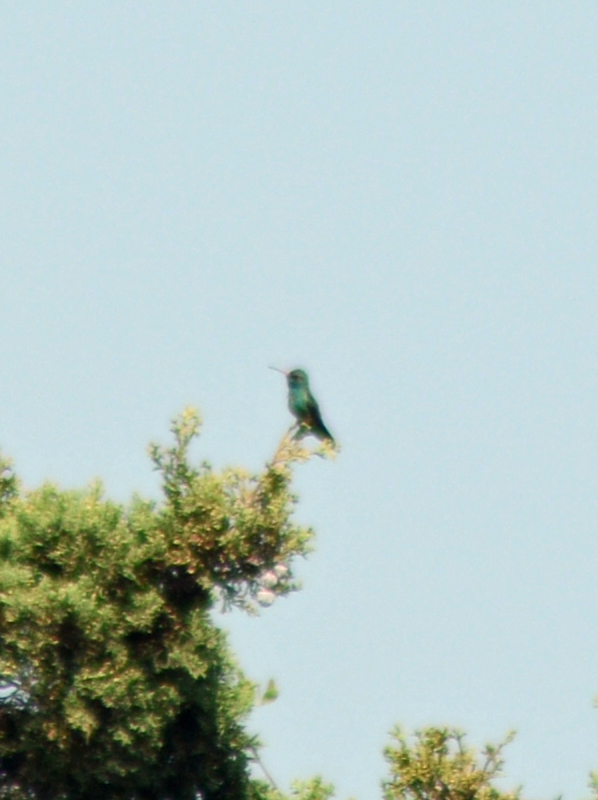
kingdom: Animalia
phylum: Chordata
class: Aves
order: Apodiformes
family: Trochilidae
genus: Cynanthus
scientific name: Cynanthus latirostris
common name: Broad-billed hummingbird
